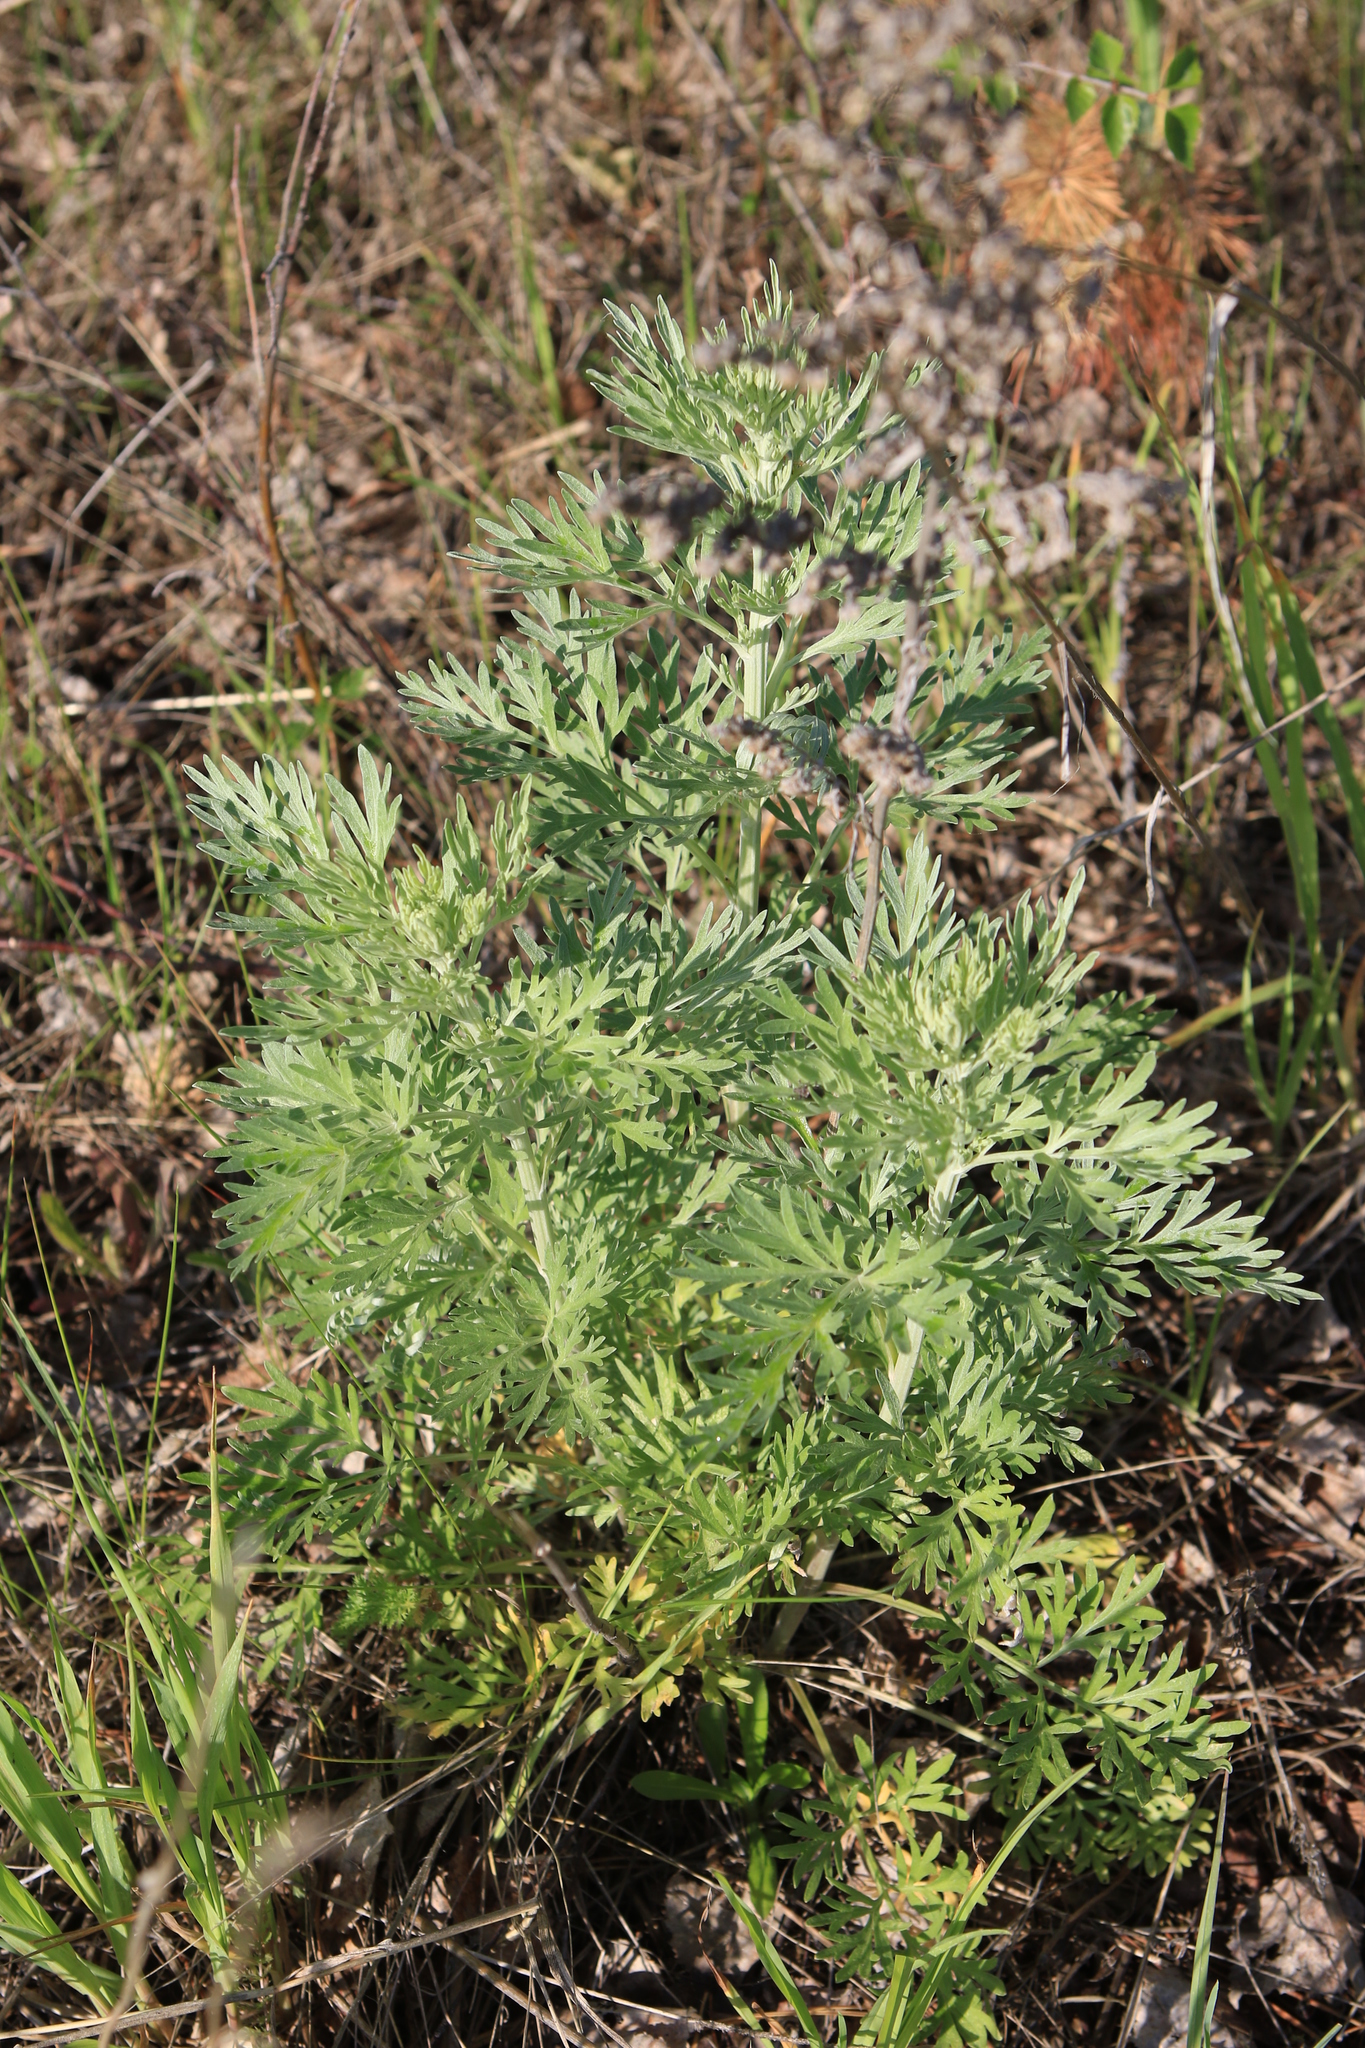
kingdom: Plantae
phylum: Tracheophyta
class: Magnoliopsida
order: Asterales
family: Asteraceae
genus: Artemisia
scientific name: Artemisia absinthium
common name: Wormwood
